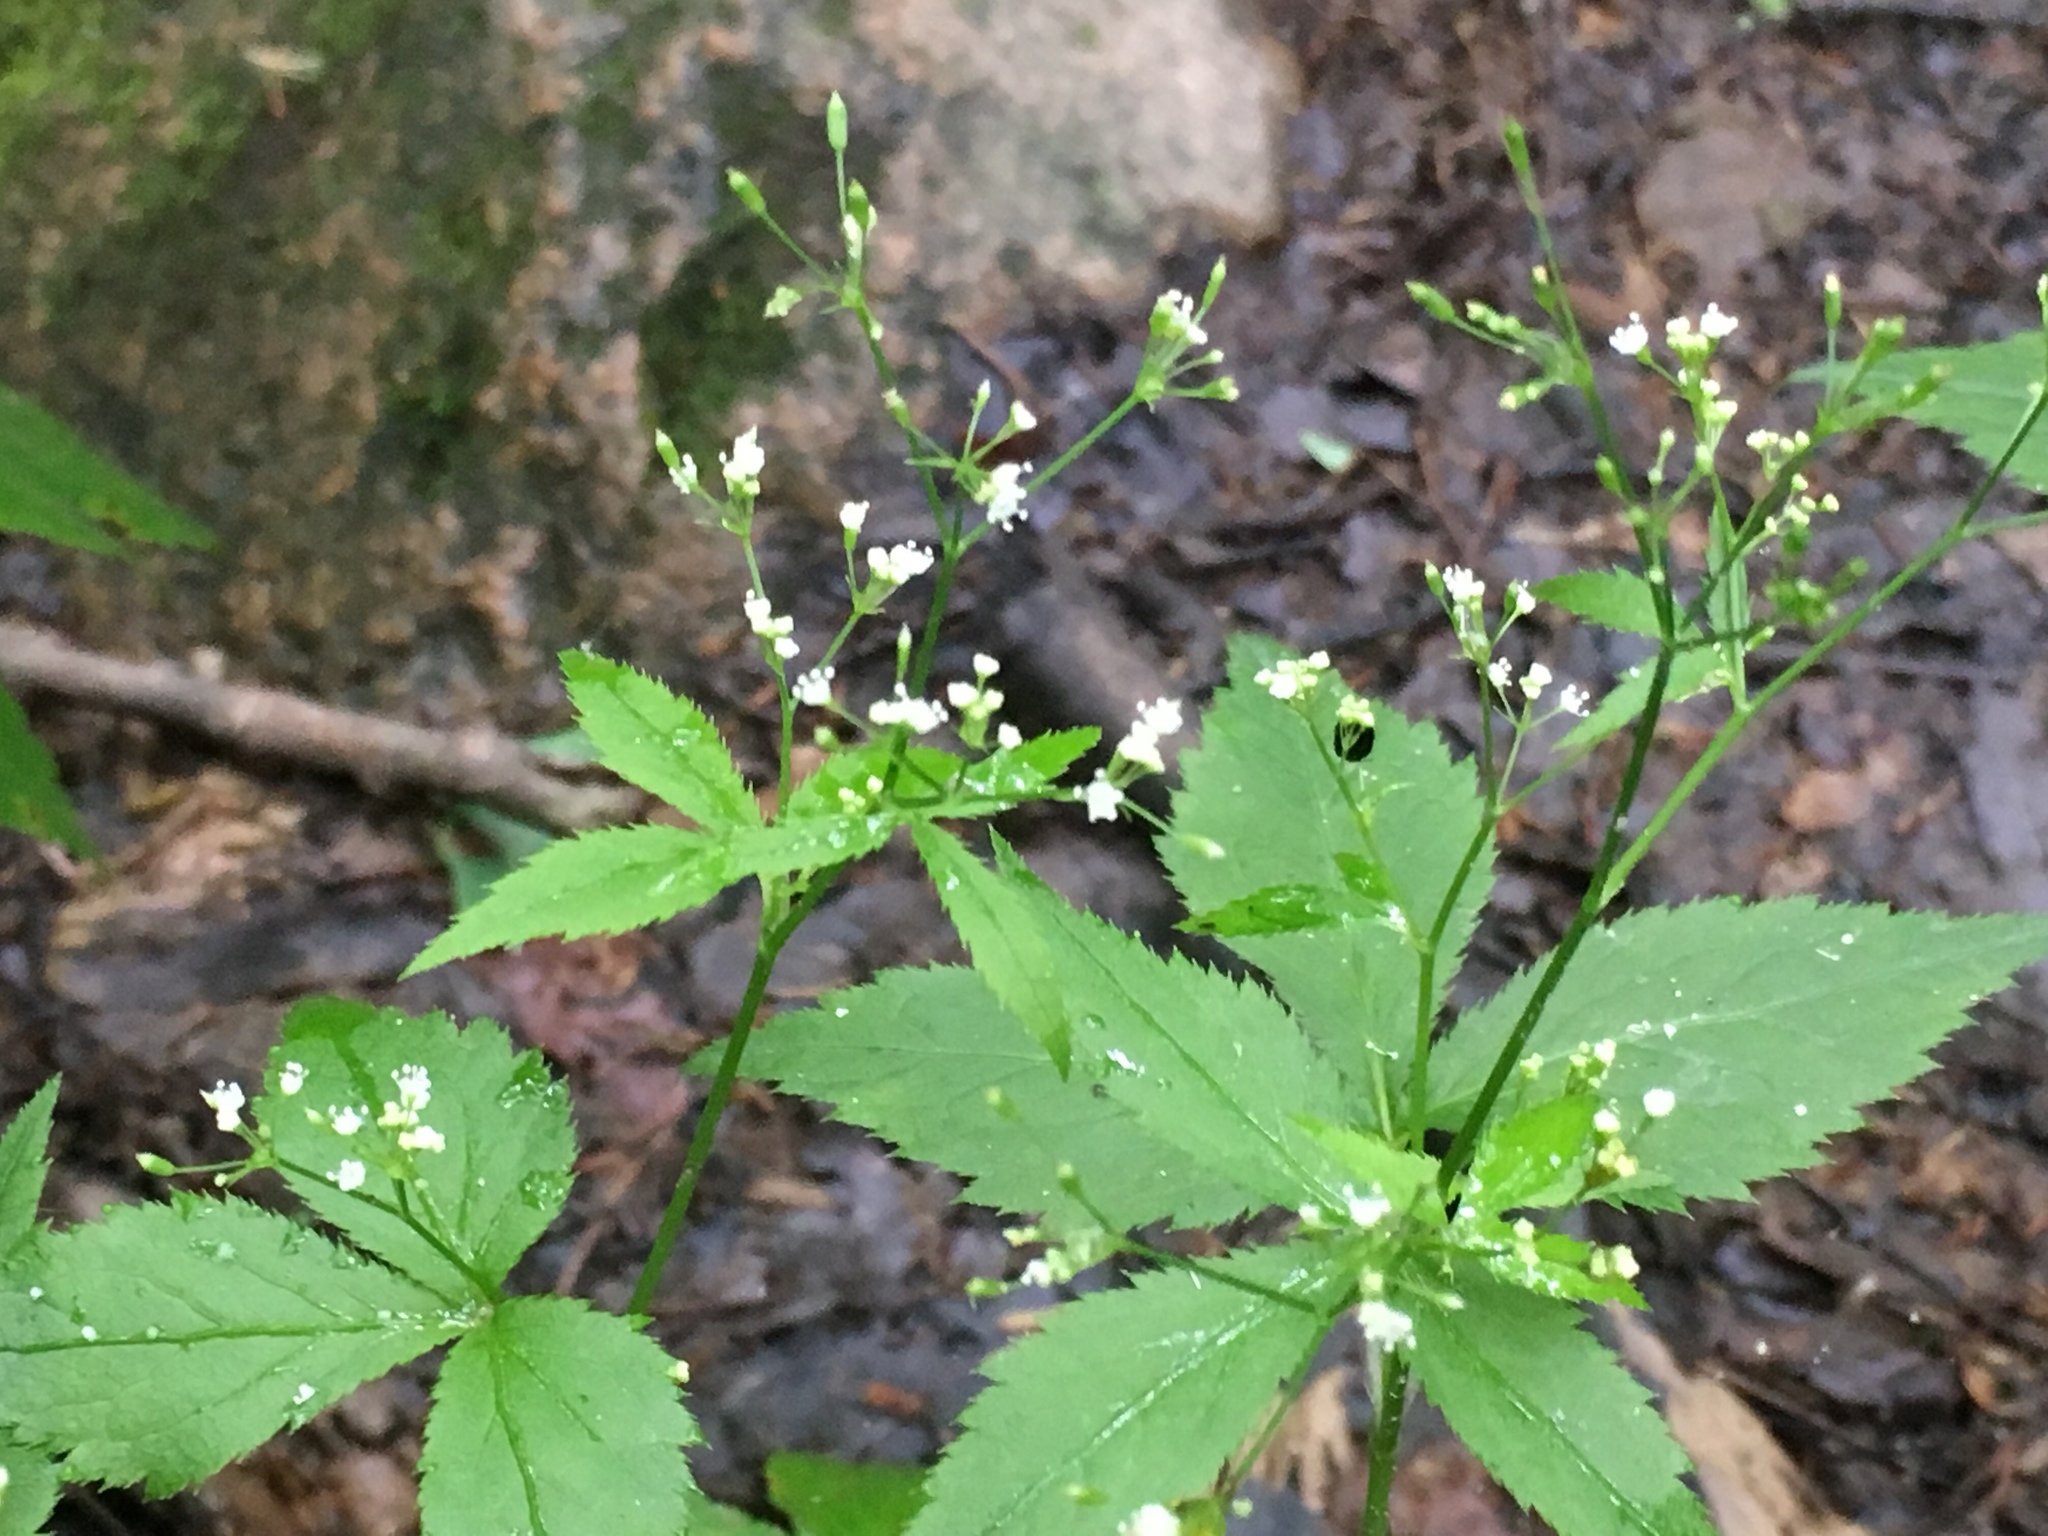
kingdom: Plantae
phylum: Tracheophyta
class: Magnoliopsida
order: Apiales
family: Apiaceae
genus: Cryptotaenia
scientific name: Cryptotaenia canadensis
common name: Honewort
